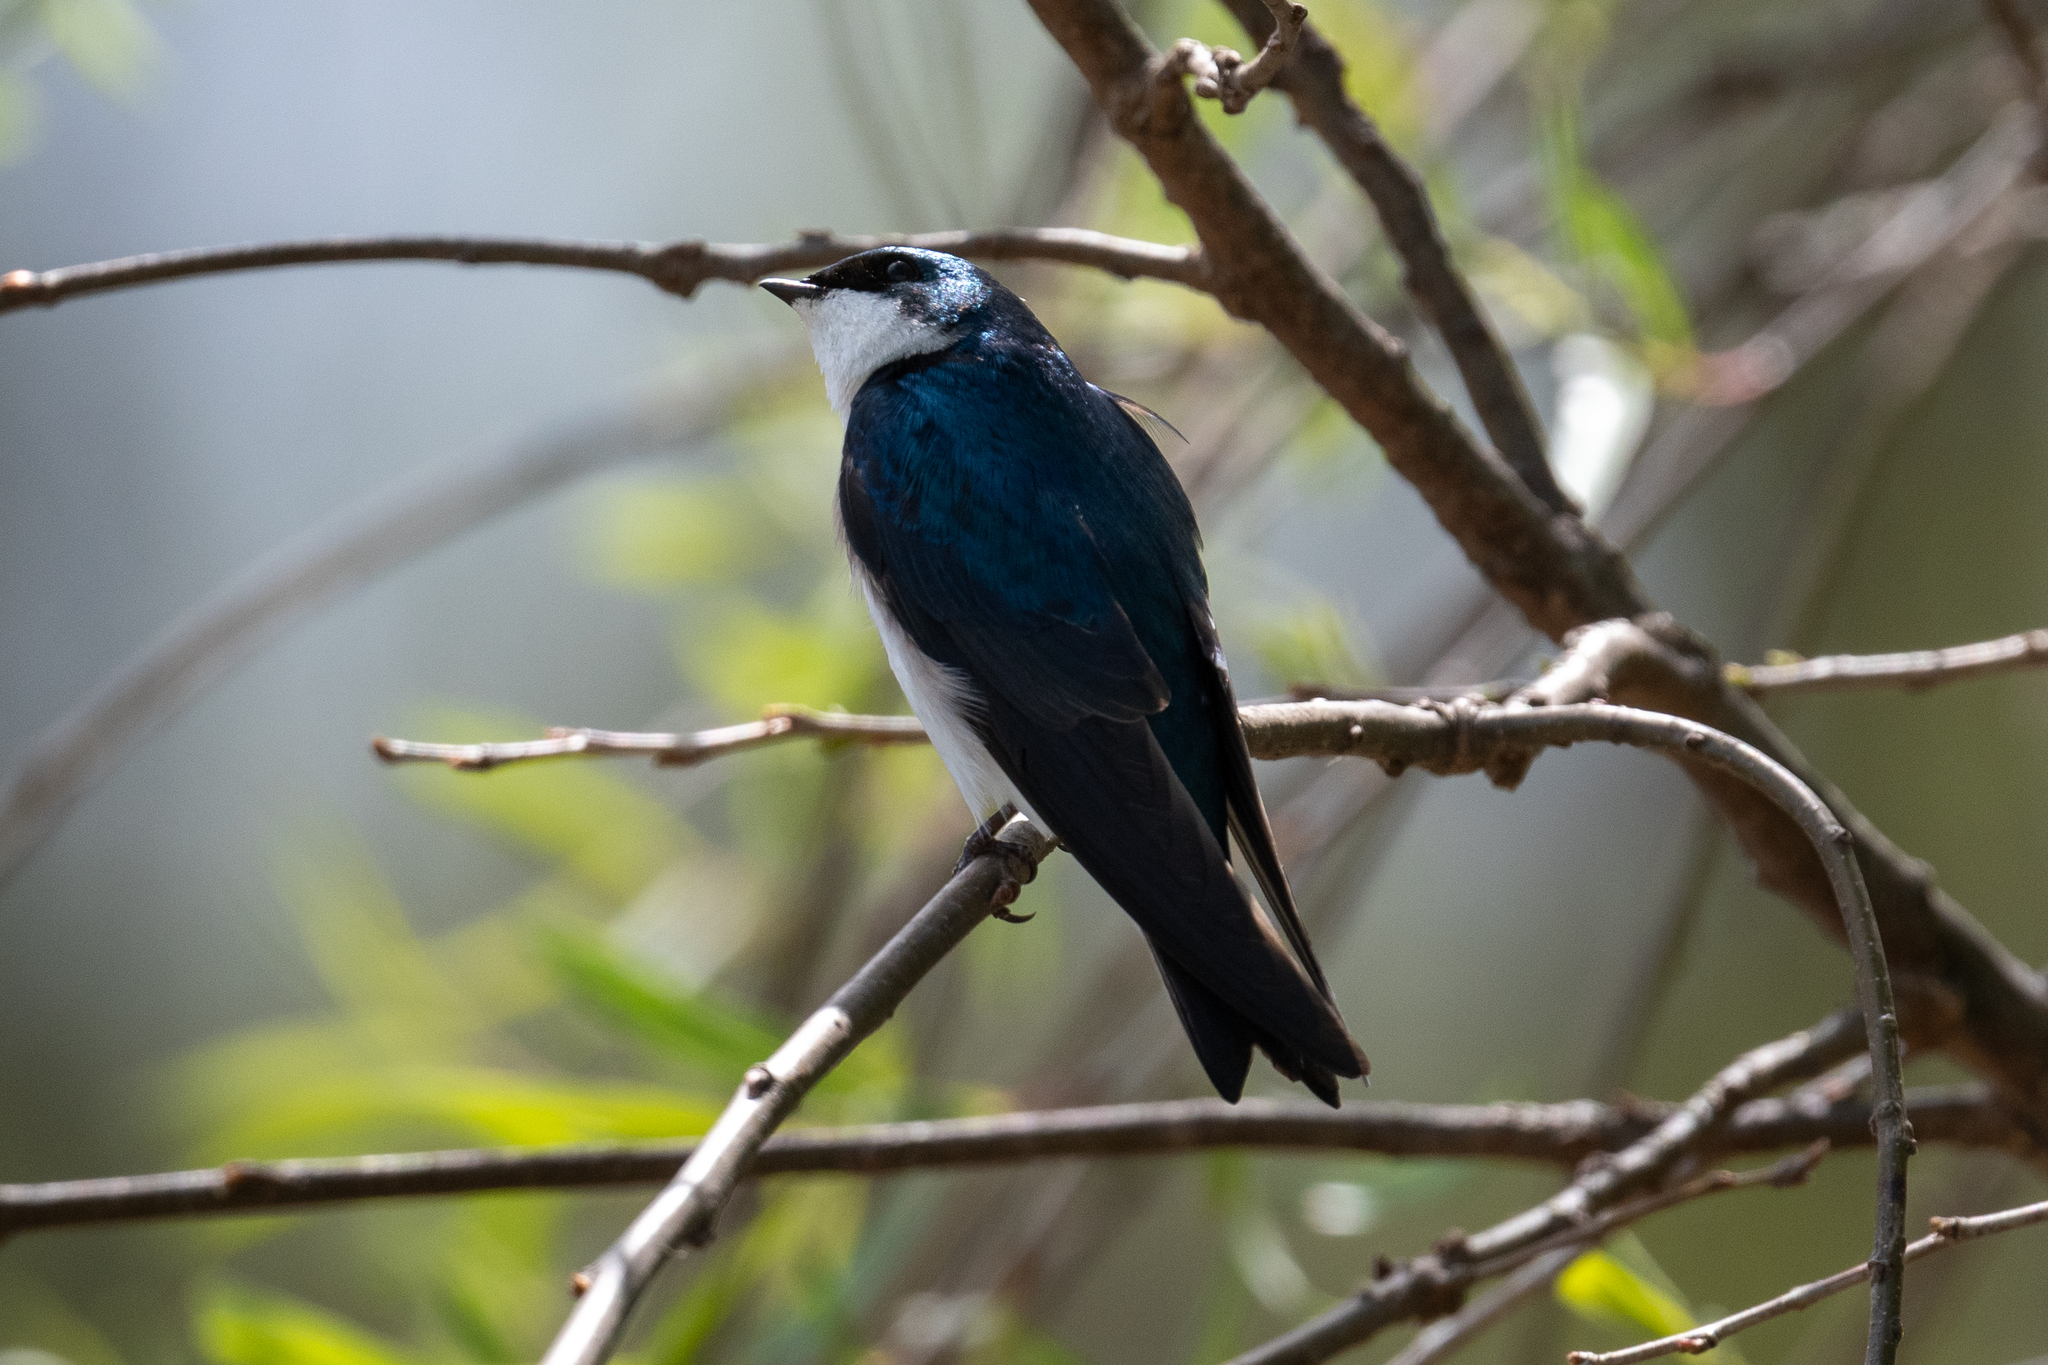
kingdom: Animalia
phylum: Chordata
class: Aves
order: Passeriformes
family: Hirundinidae
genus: Tachycineta
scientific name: Tachycineta bicolor
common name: Tree swallow
